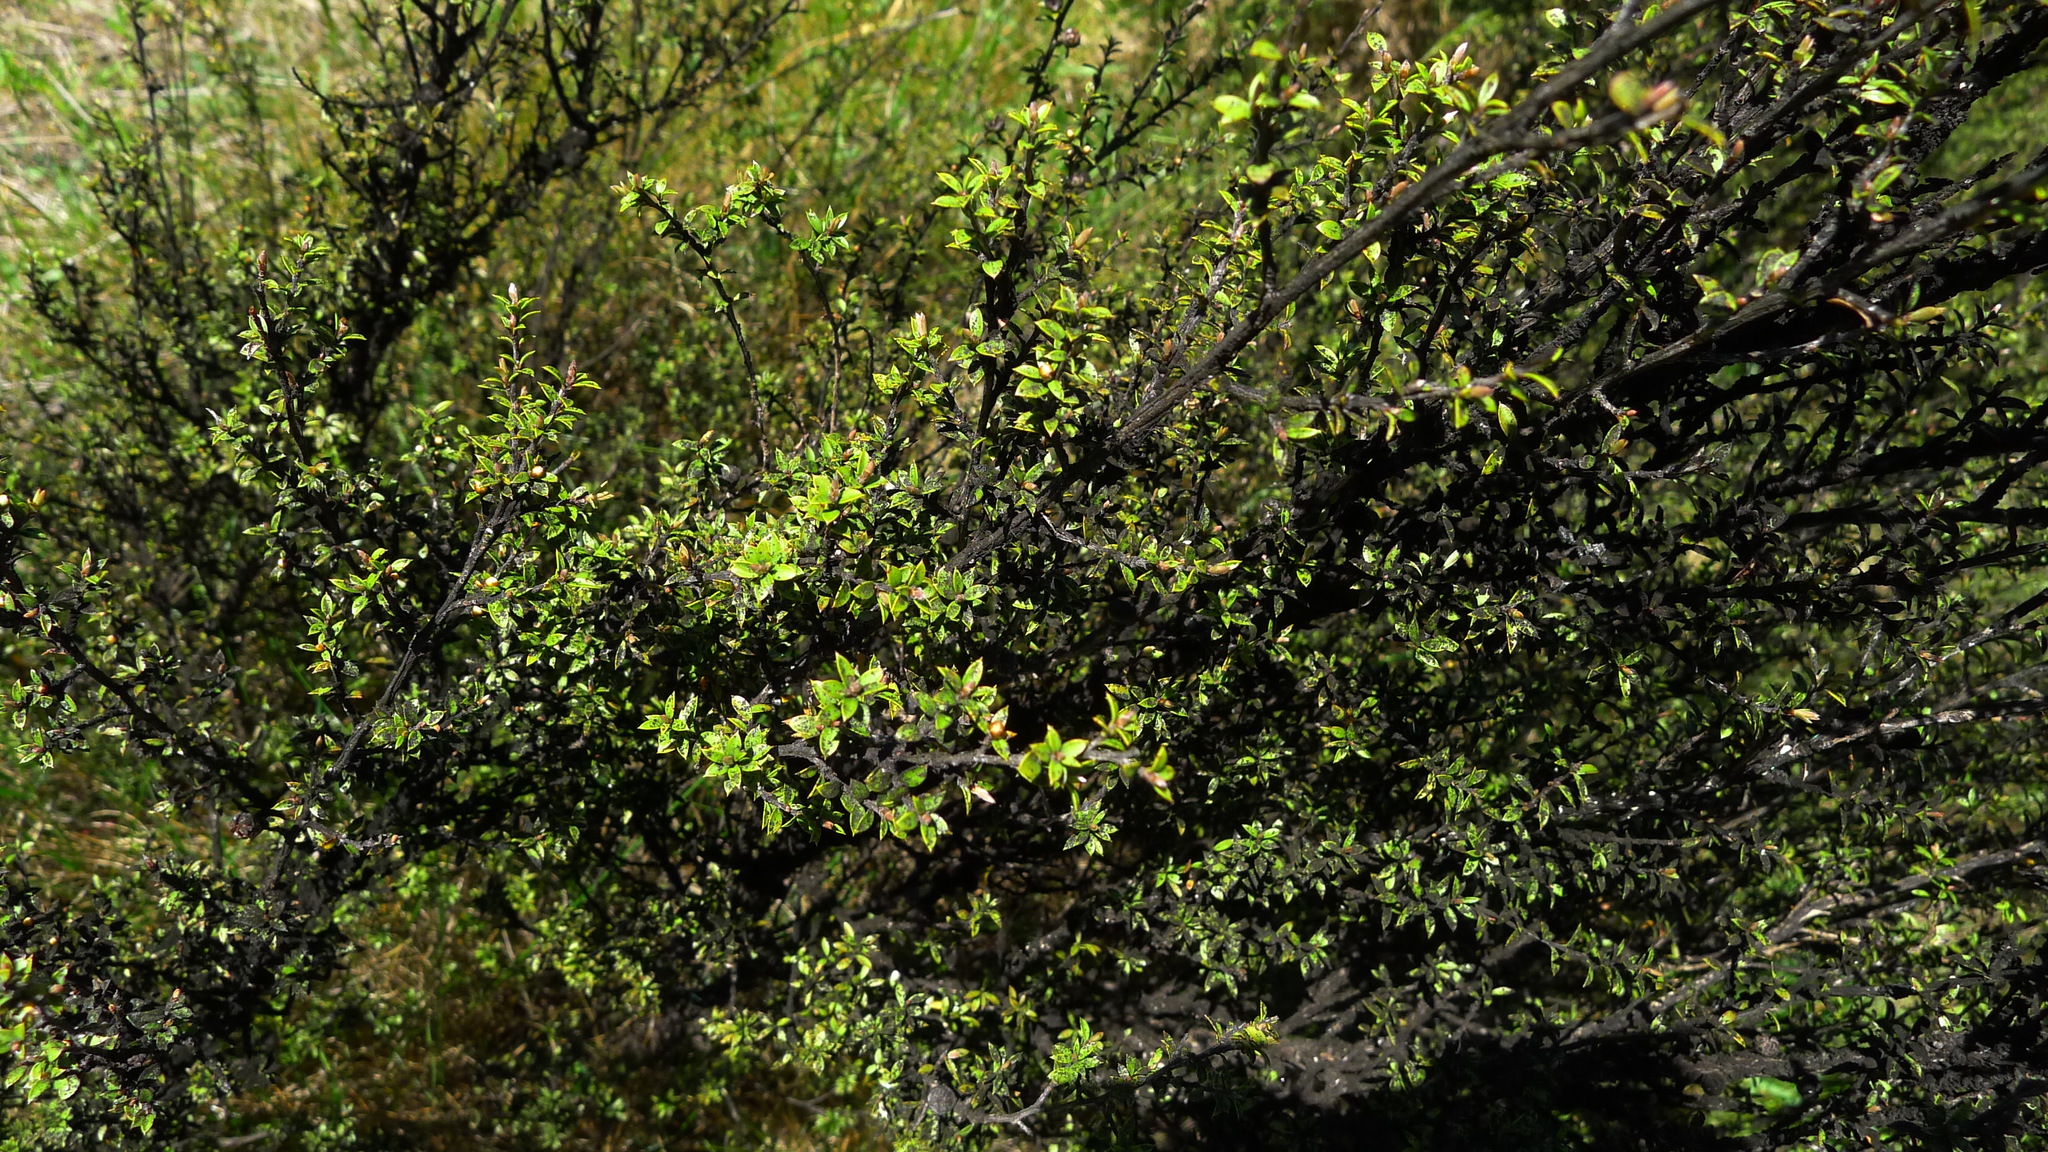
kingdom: Plantae
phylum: Tracheophyta
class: Magnoliopsida
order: Myrtales
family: Myrtaceae
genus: Leptospermum
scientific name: Leptospermum scoparium
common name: Broom tea-tree
